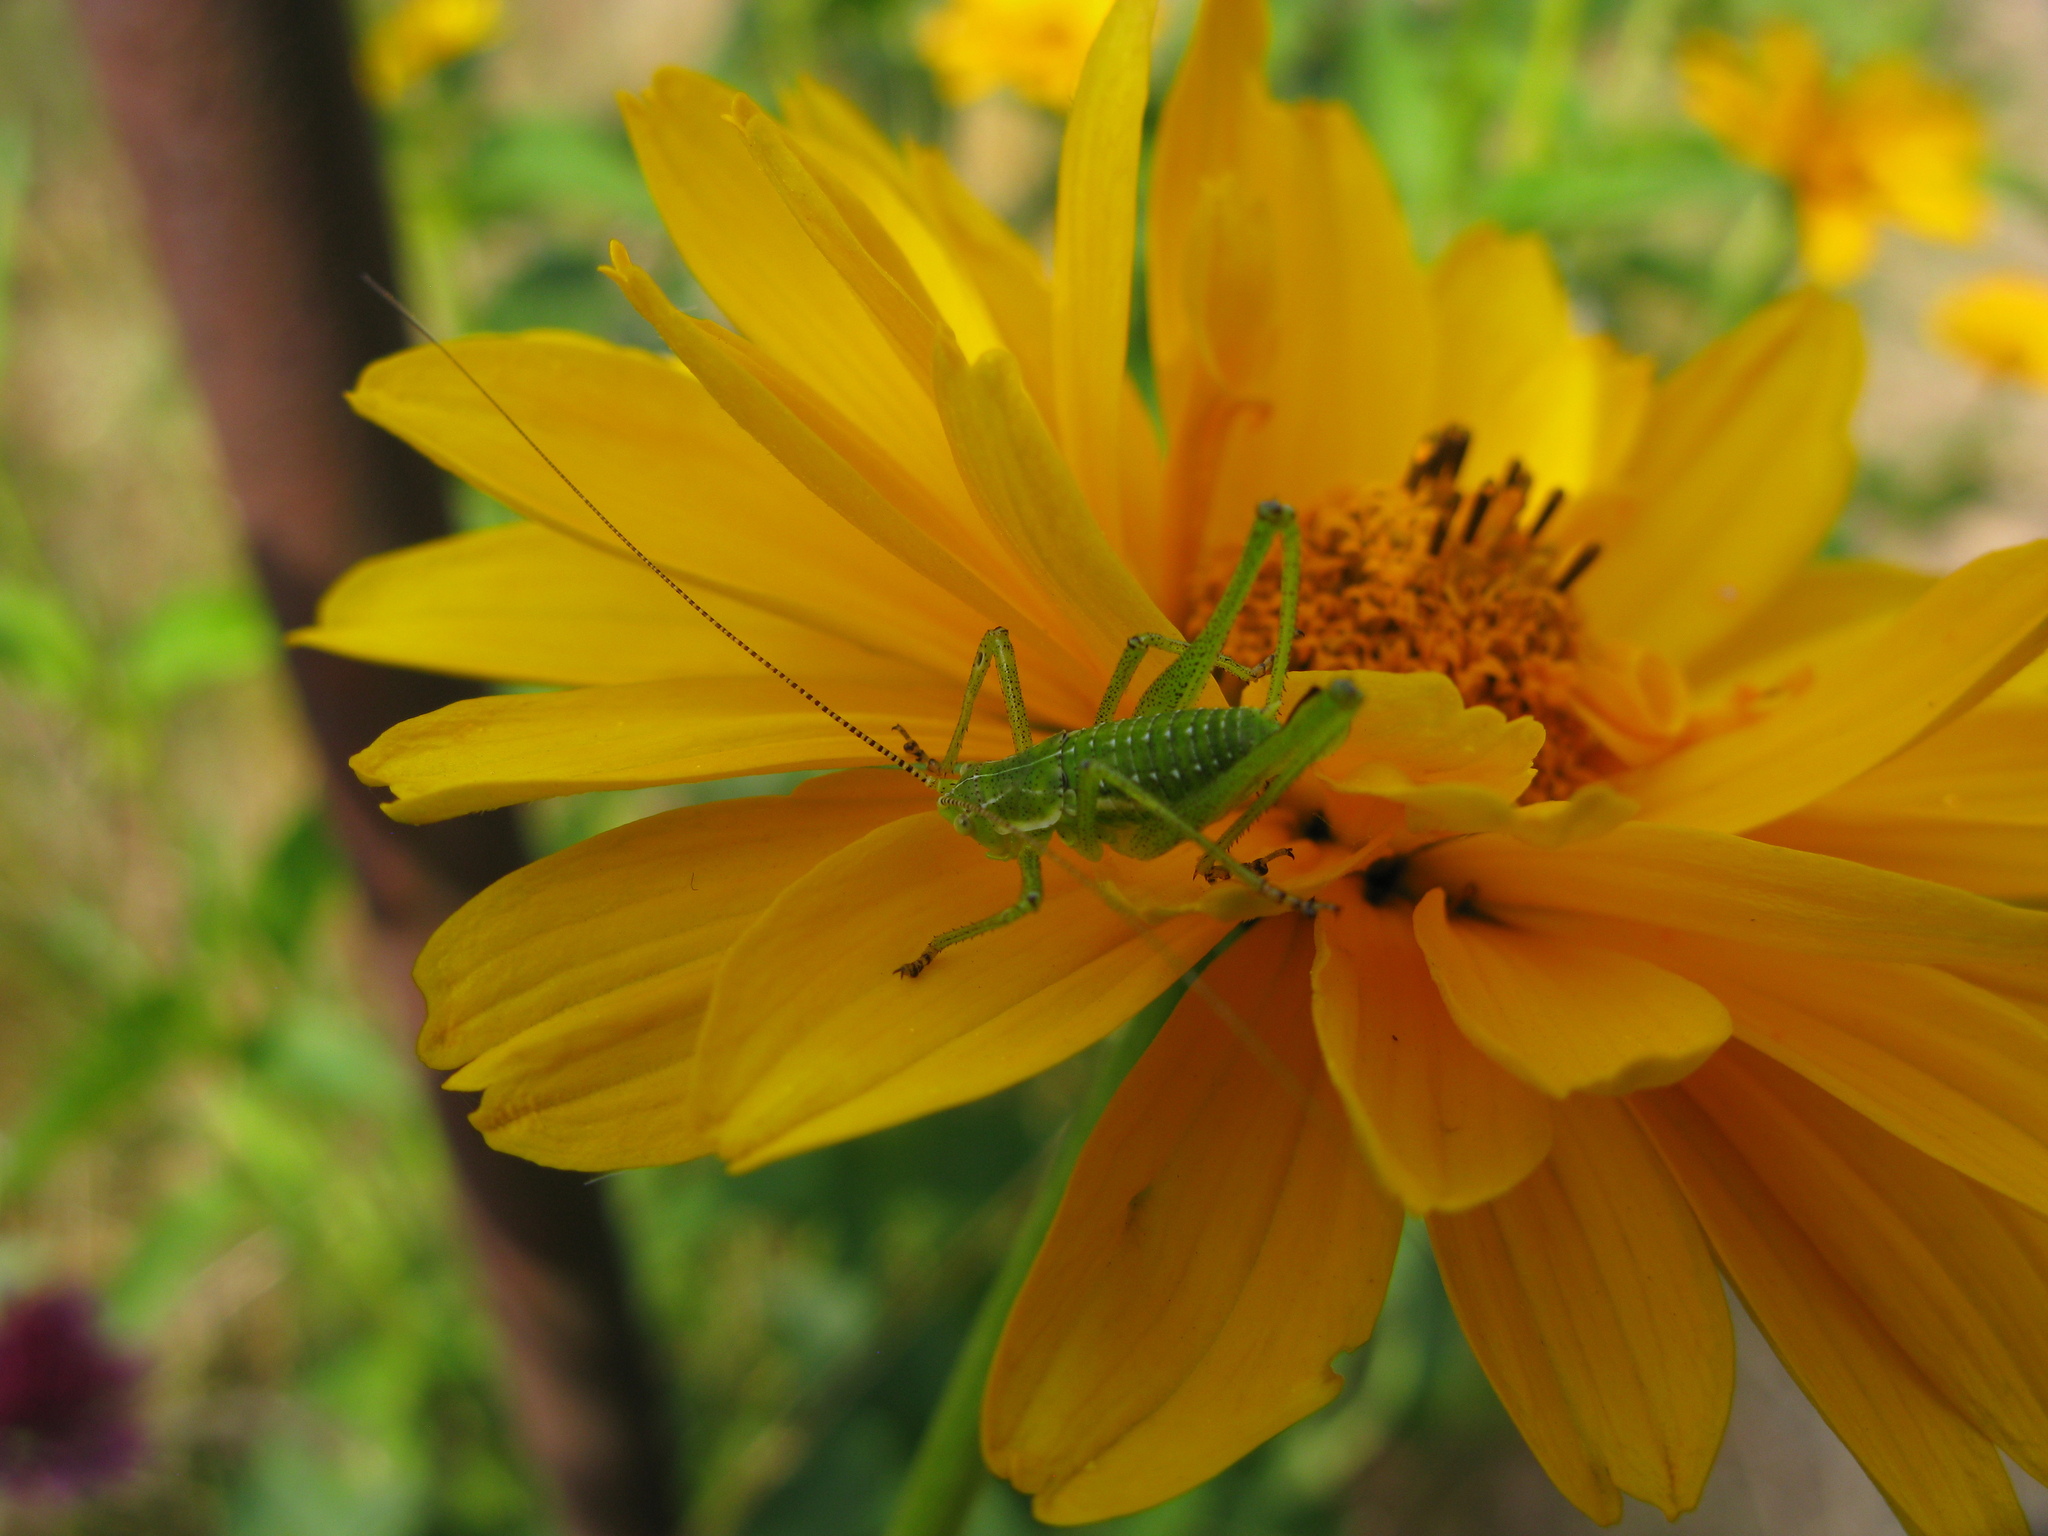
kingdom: Animalia
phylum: Arthropoda
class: Insecta
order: Orthoptera
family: Tettigoniidae
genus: Leptophyes
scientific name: Leptophyes albovittata
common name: Striped bush-cricket
